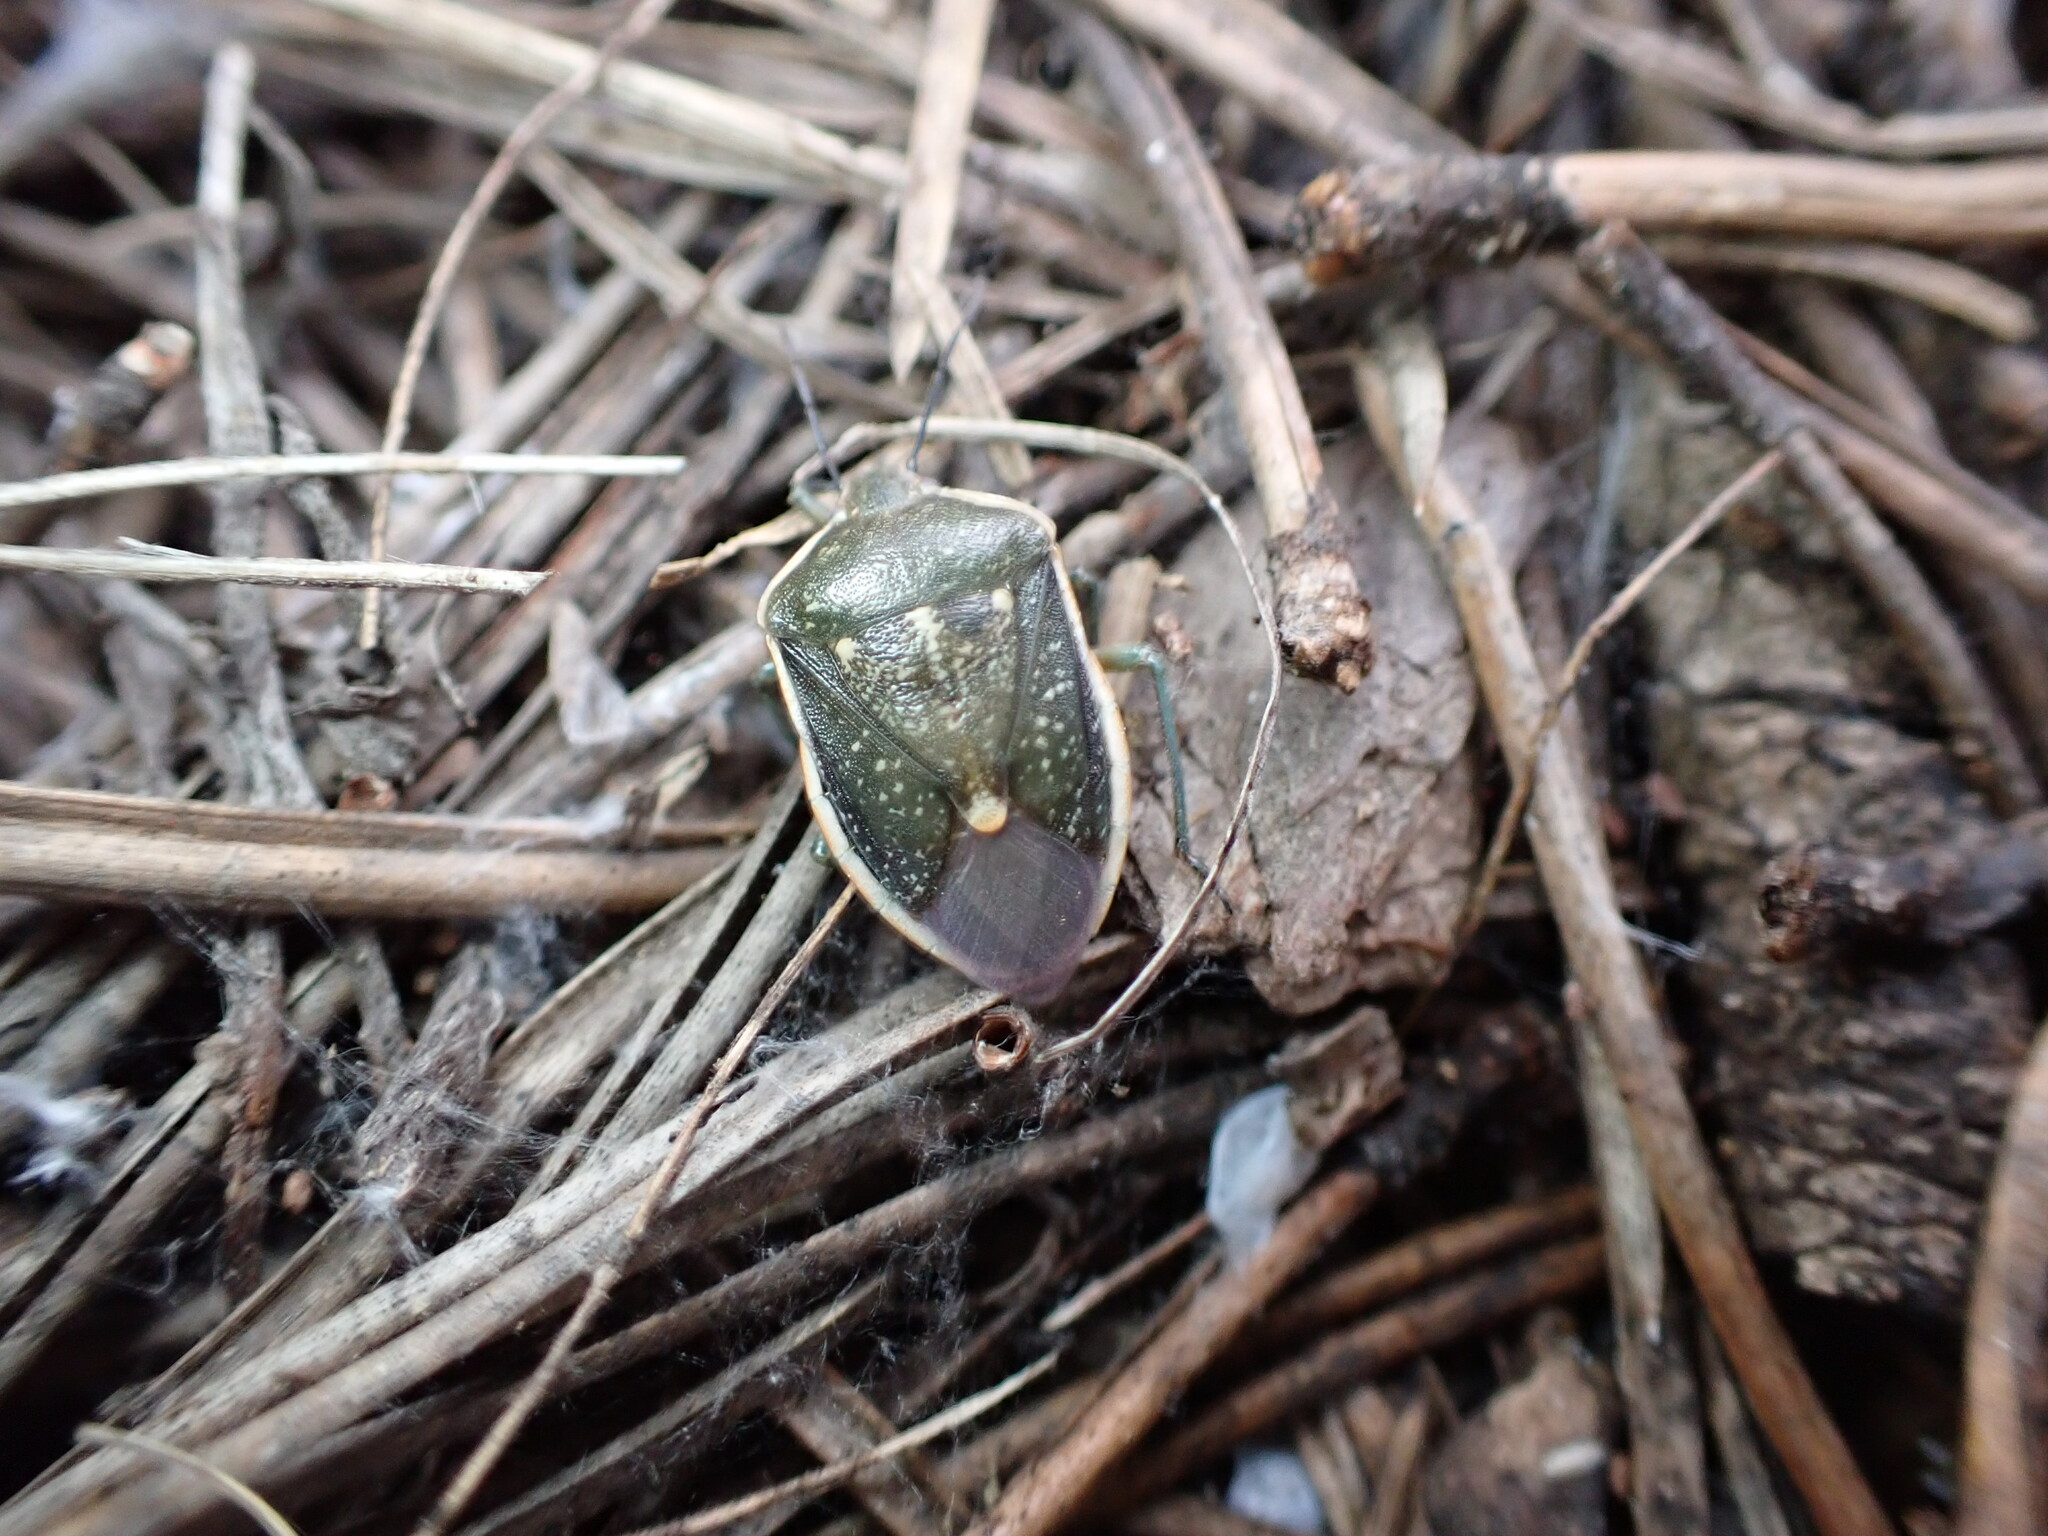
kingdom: Animalia
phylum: Arthropoda
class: Insecta
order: Hemiptera
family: Pentatomidae
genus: Chlorochroa
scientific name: Chlorochroa sayi
